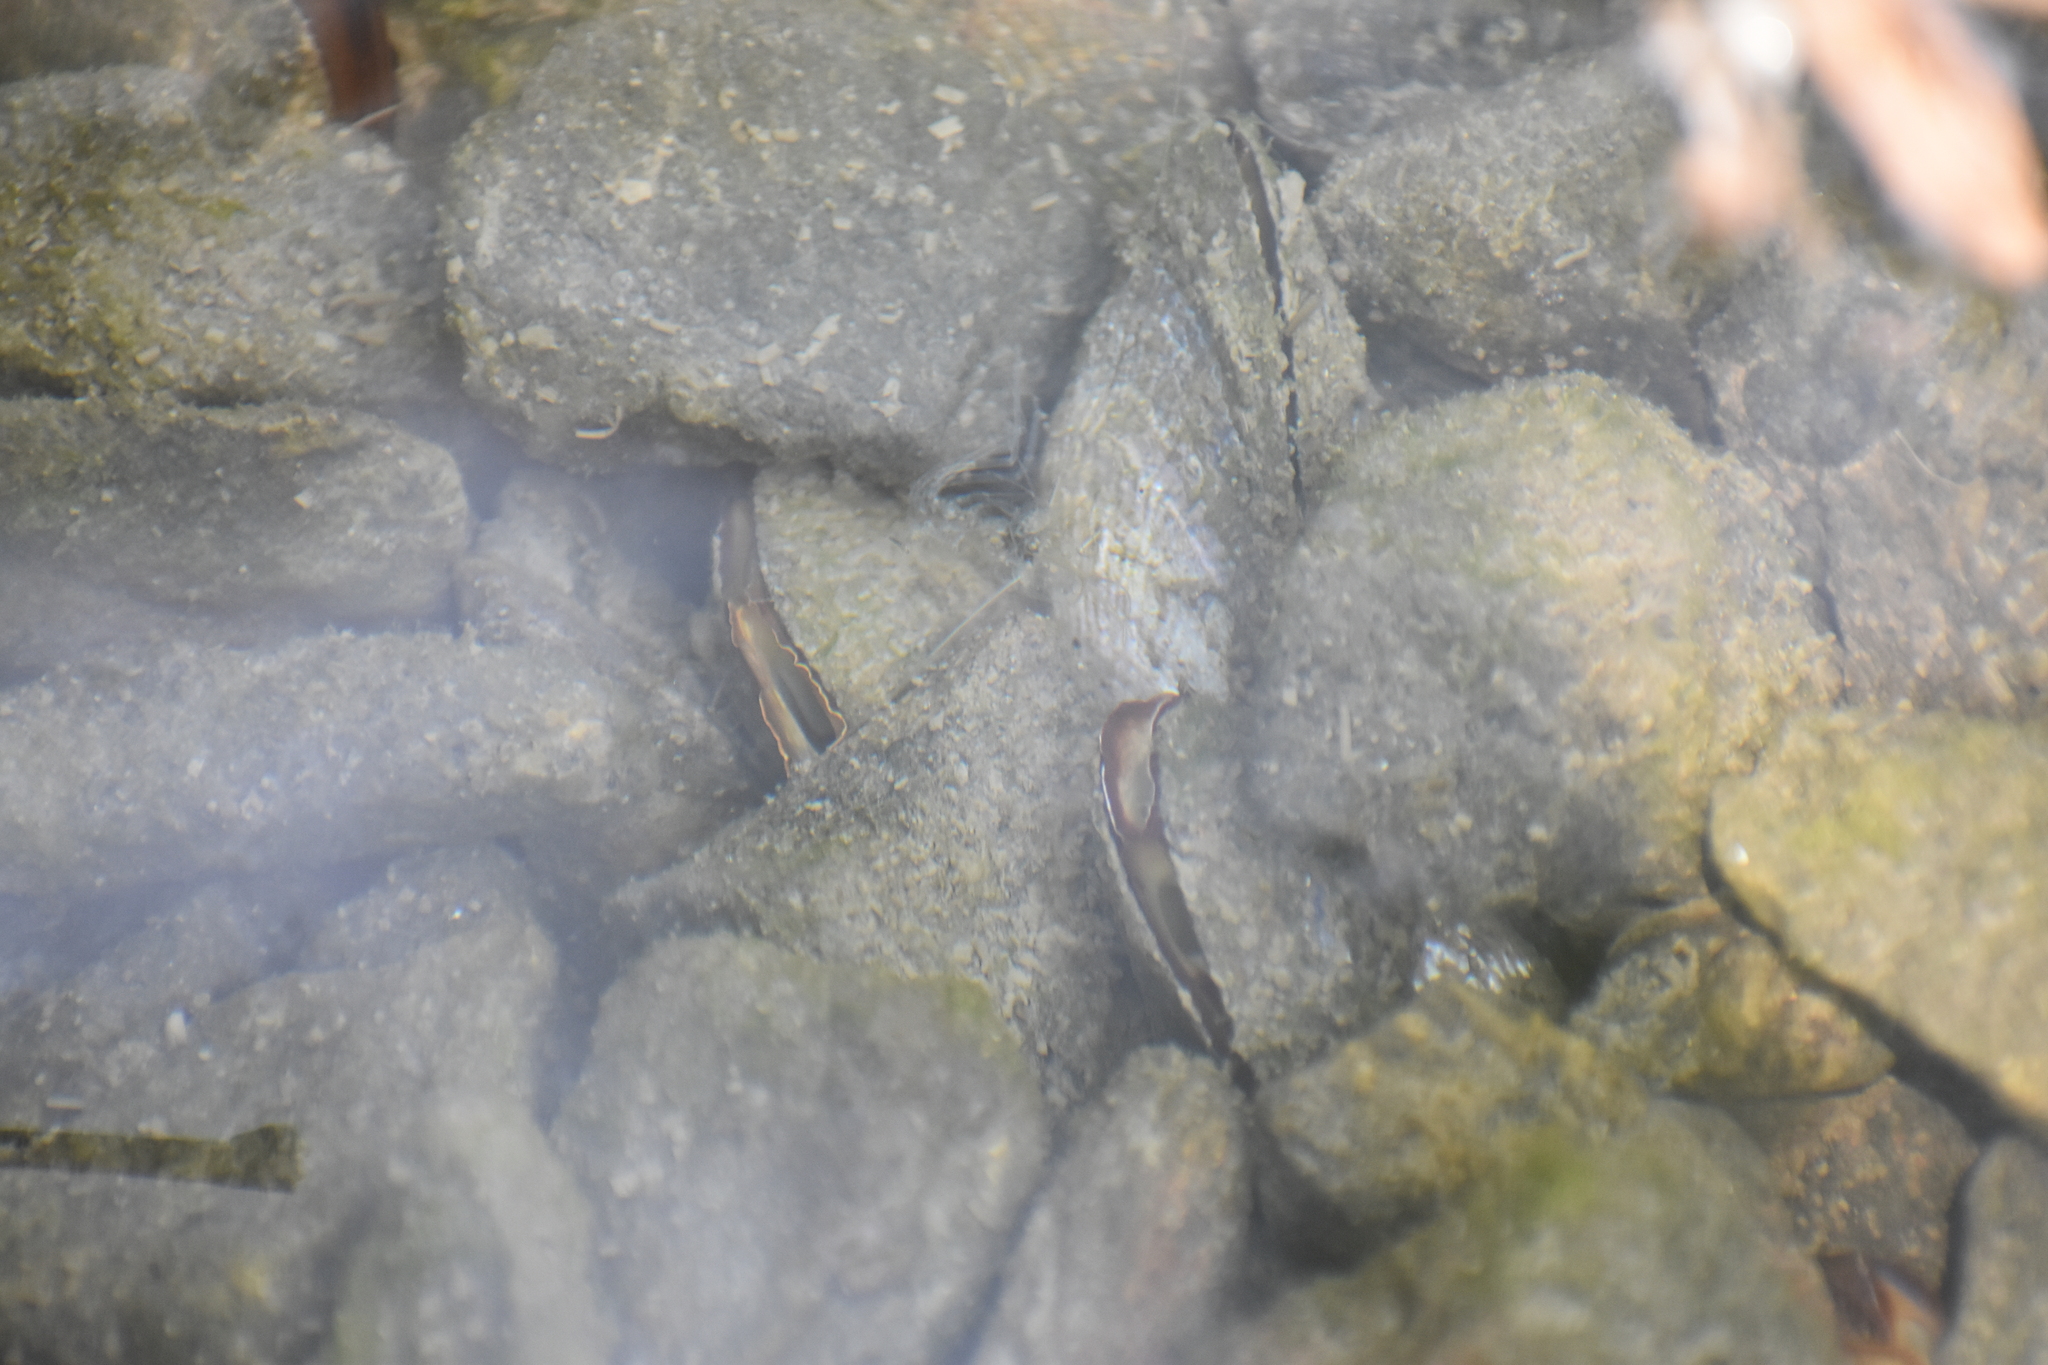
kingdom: Animalia
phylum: Mollusca
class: Bivalvia
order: Mytilida
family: Mytilidae
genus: Geukensia
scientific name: Geukensia demissa
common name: Ribbed mussel
